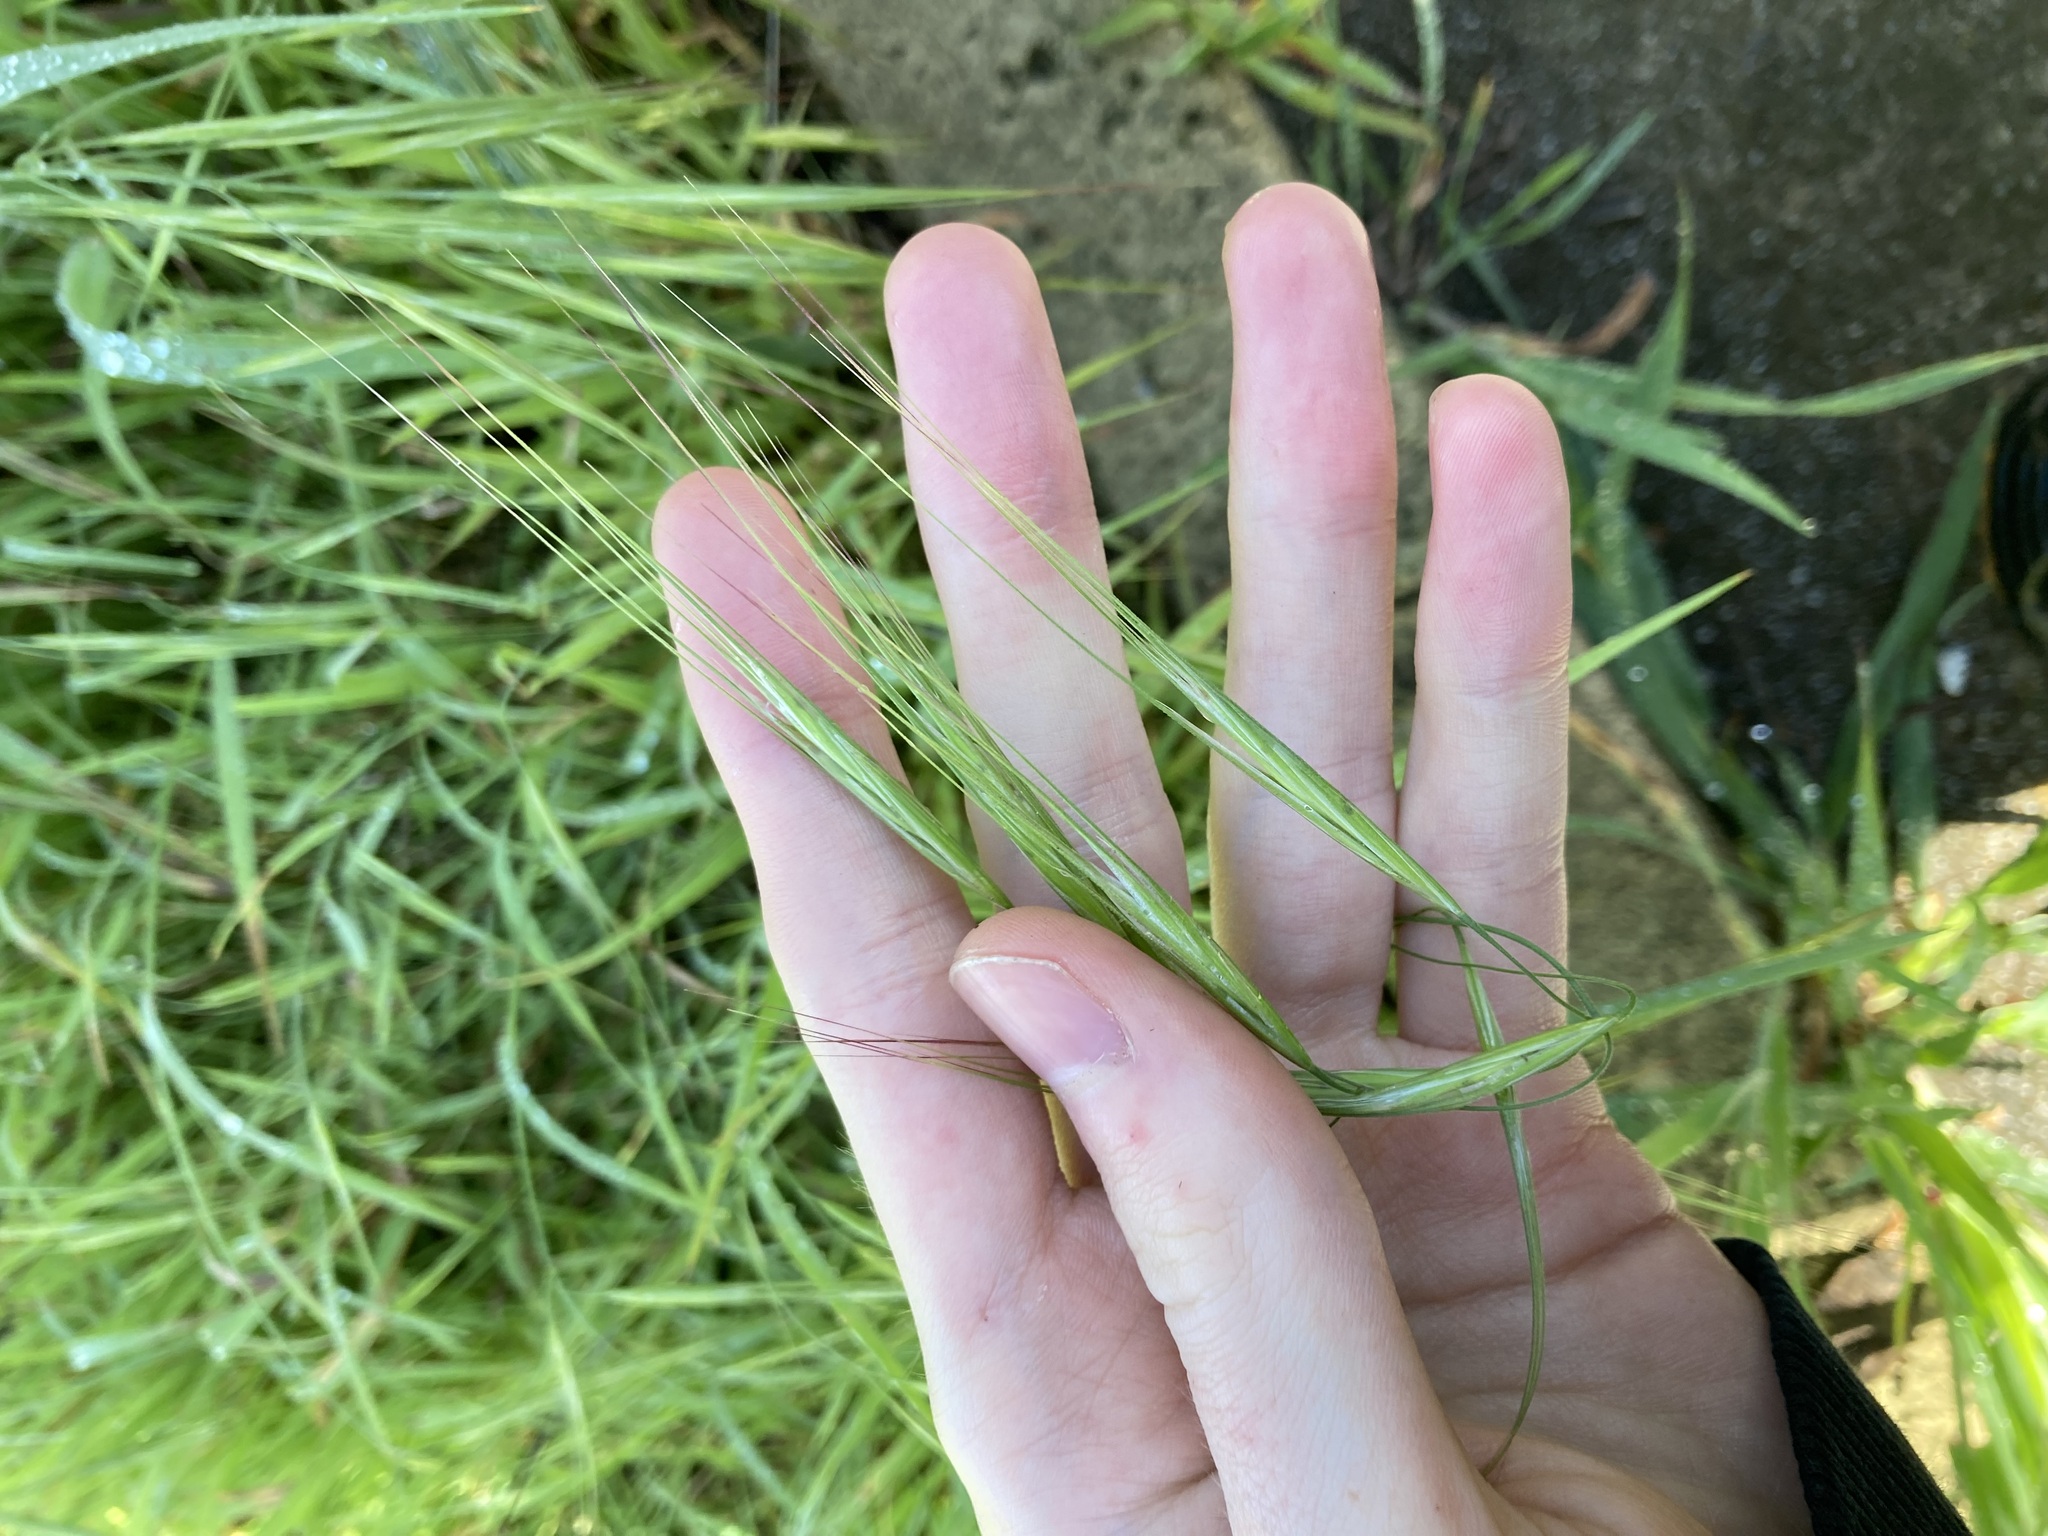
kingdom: Plantae
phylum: Tracheophyta
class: Liliopsida
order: Poales
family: Poaceae
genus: Bromus
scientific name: Bromus diandrus
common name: Ripgut brome
